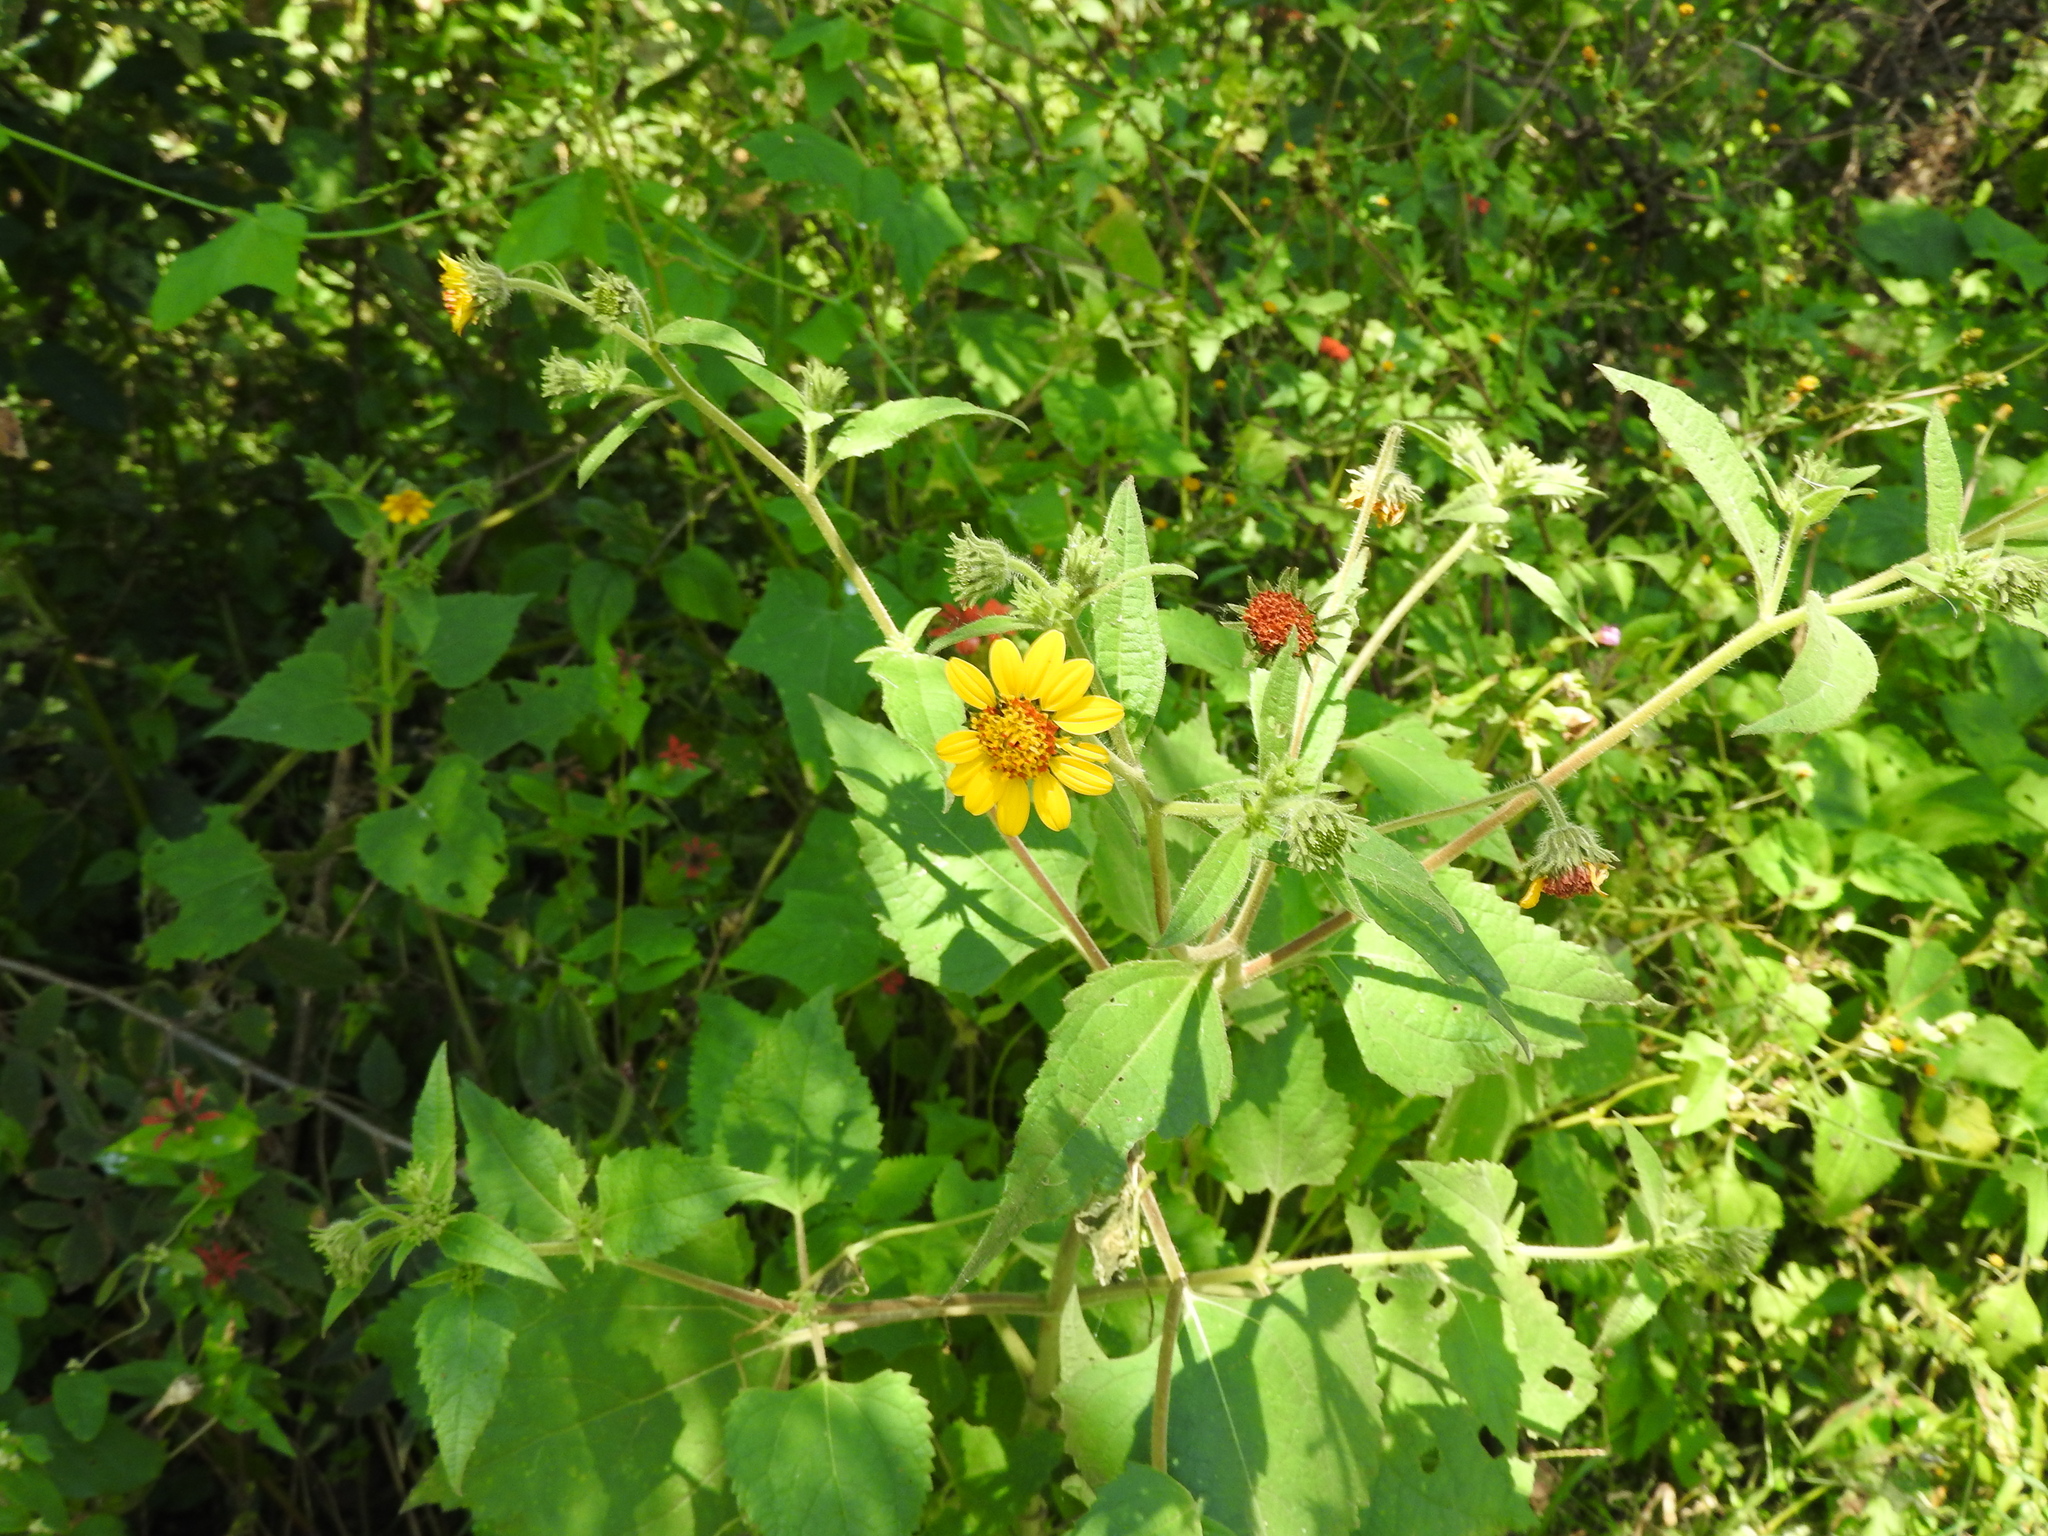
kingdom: Plantae
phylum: Tracheophyta
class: Magnoliopsida
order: Asterales
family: Asteraceae
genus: Simsia
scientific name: Simsia foetida
